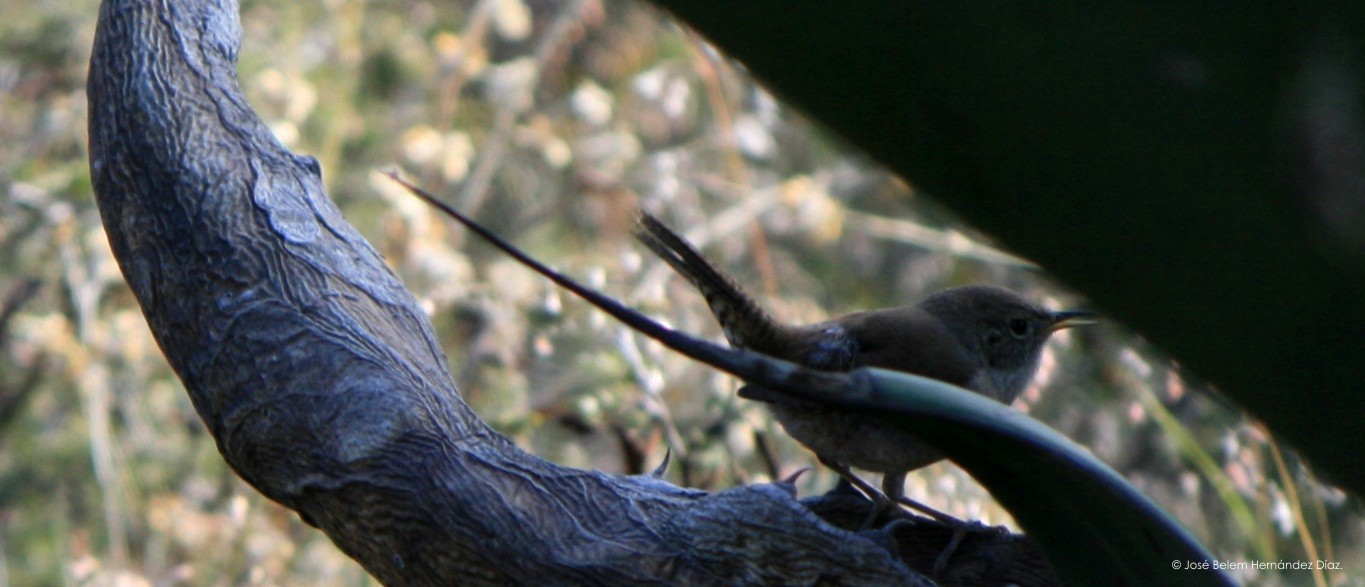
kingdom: Animalia
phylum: Chordata
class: Aves
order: Passeriformes
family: Troglodytidae
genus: Troglodytes
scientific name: Troglodytes aedon
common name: House wren
